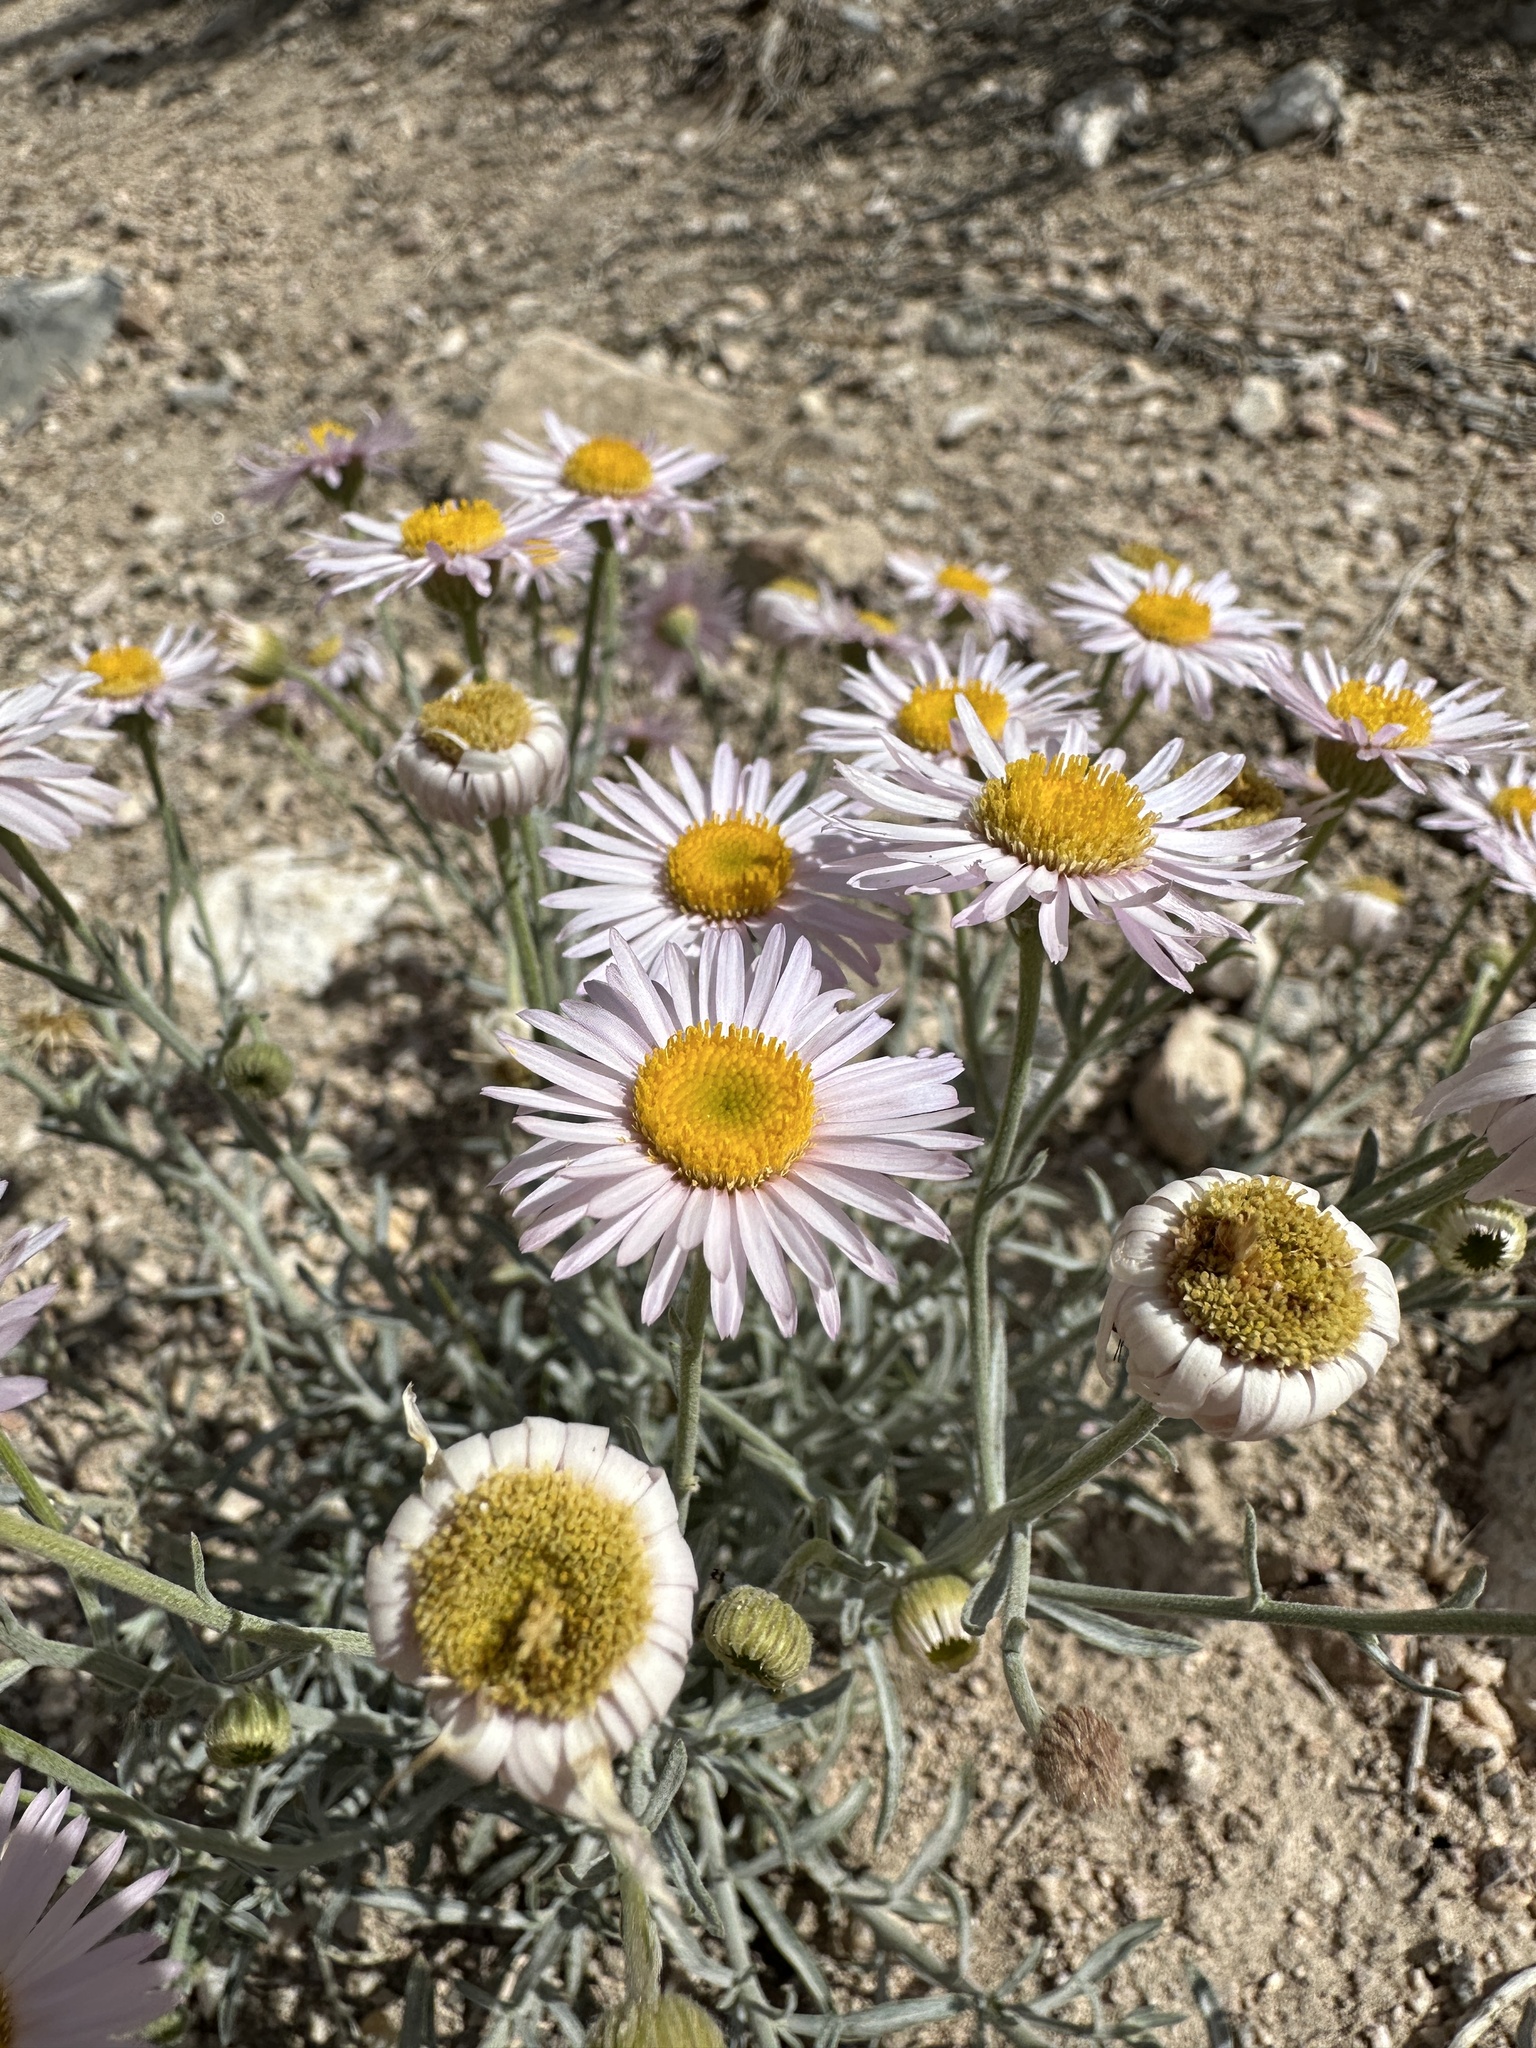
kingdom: Plantae
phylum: Tracheophyta
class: Magnoliopsida
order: Asterales
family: Asteraceae
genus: Erigeron
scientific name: Erigeron parishii
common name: Parish's daisy
